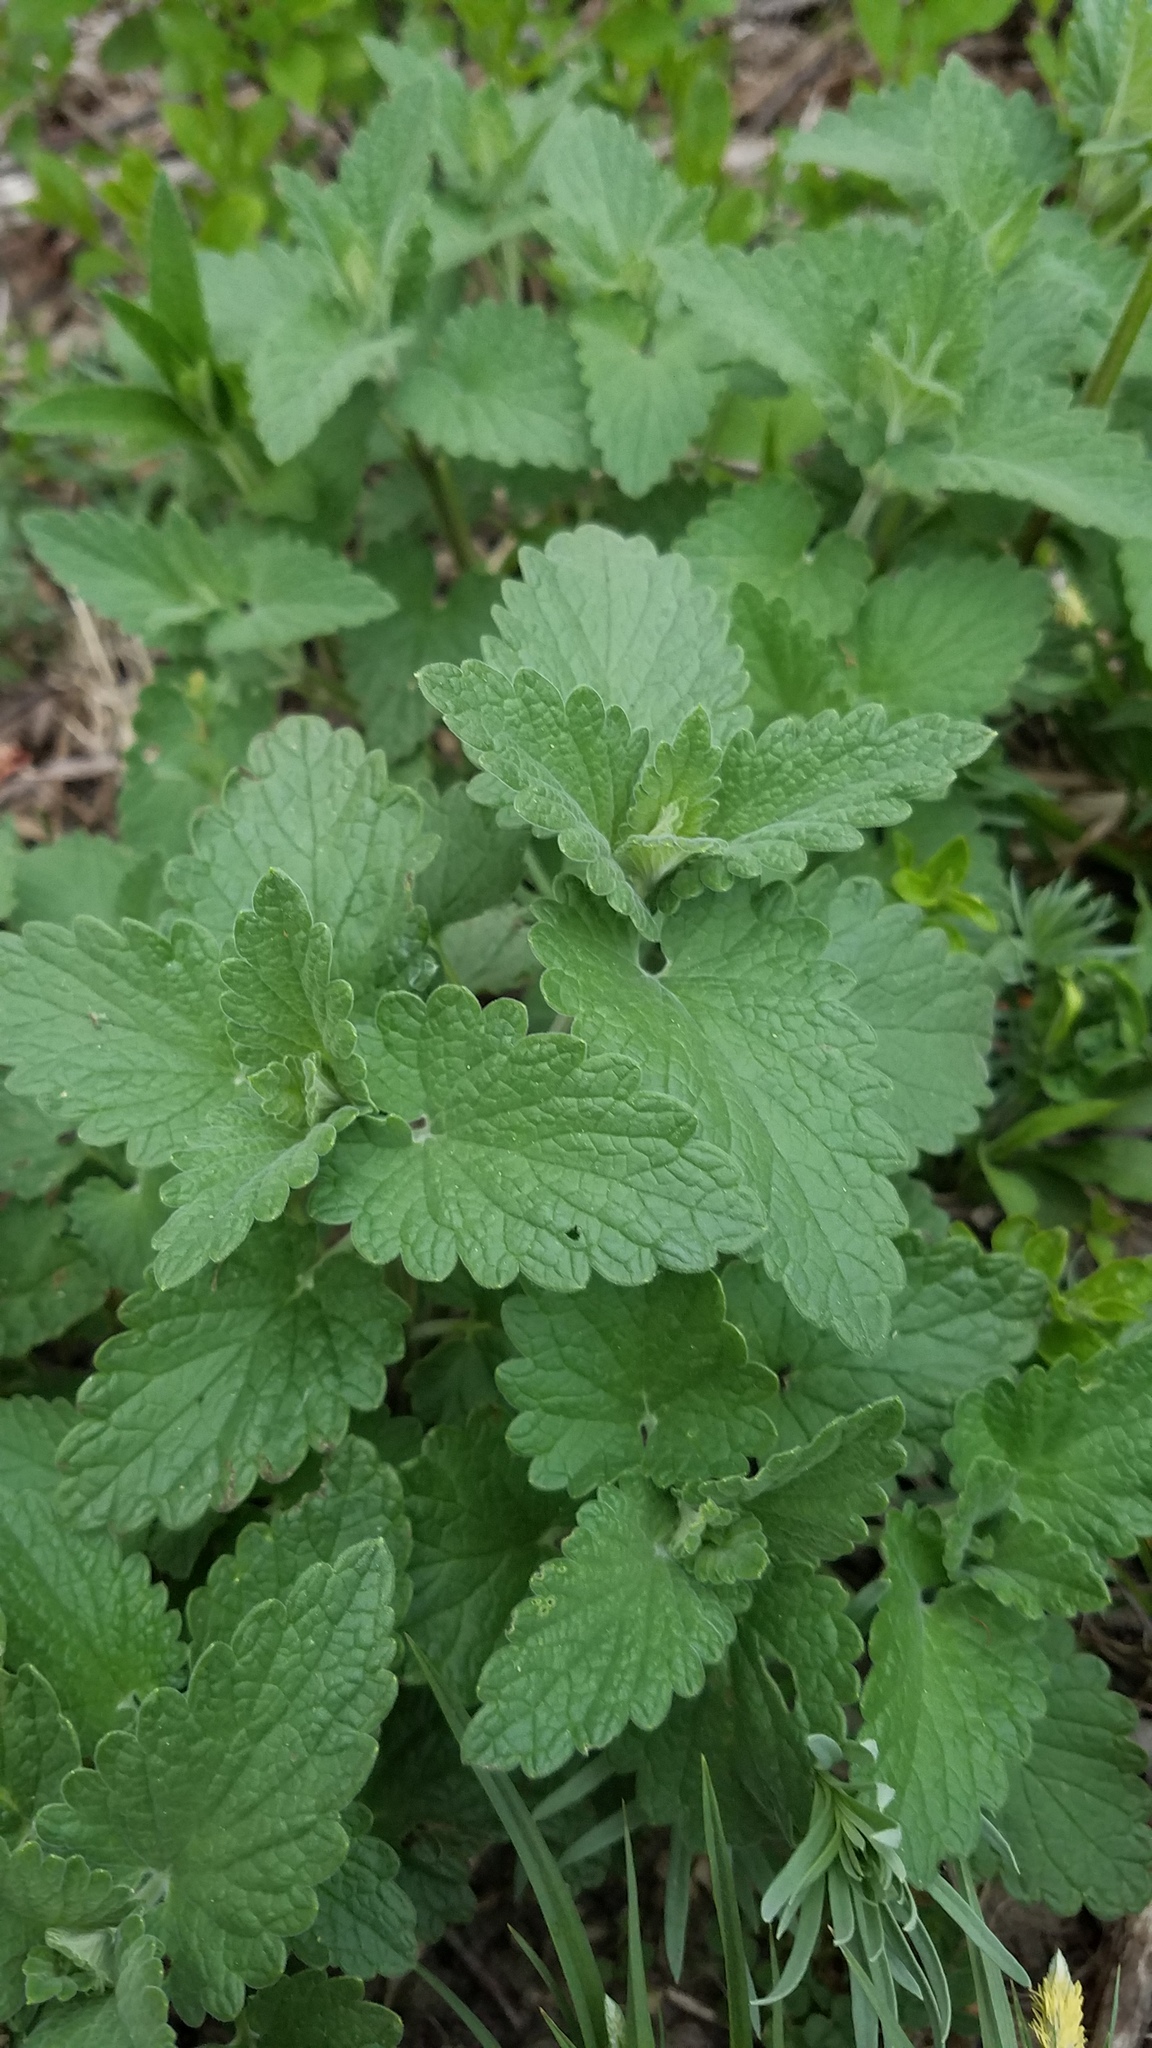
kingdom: Plantae
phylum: Tracheophyta
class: Magnoliopsida
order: Lamiales
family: Lamiaceae
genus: Nepeta
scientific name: Nepeta cataria
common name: Catnip
